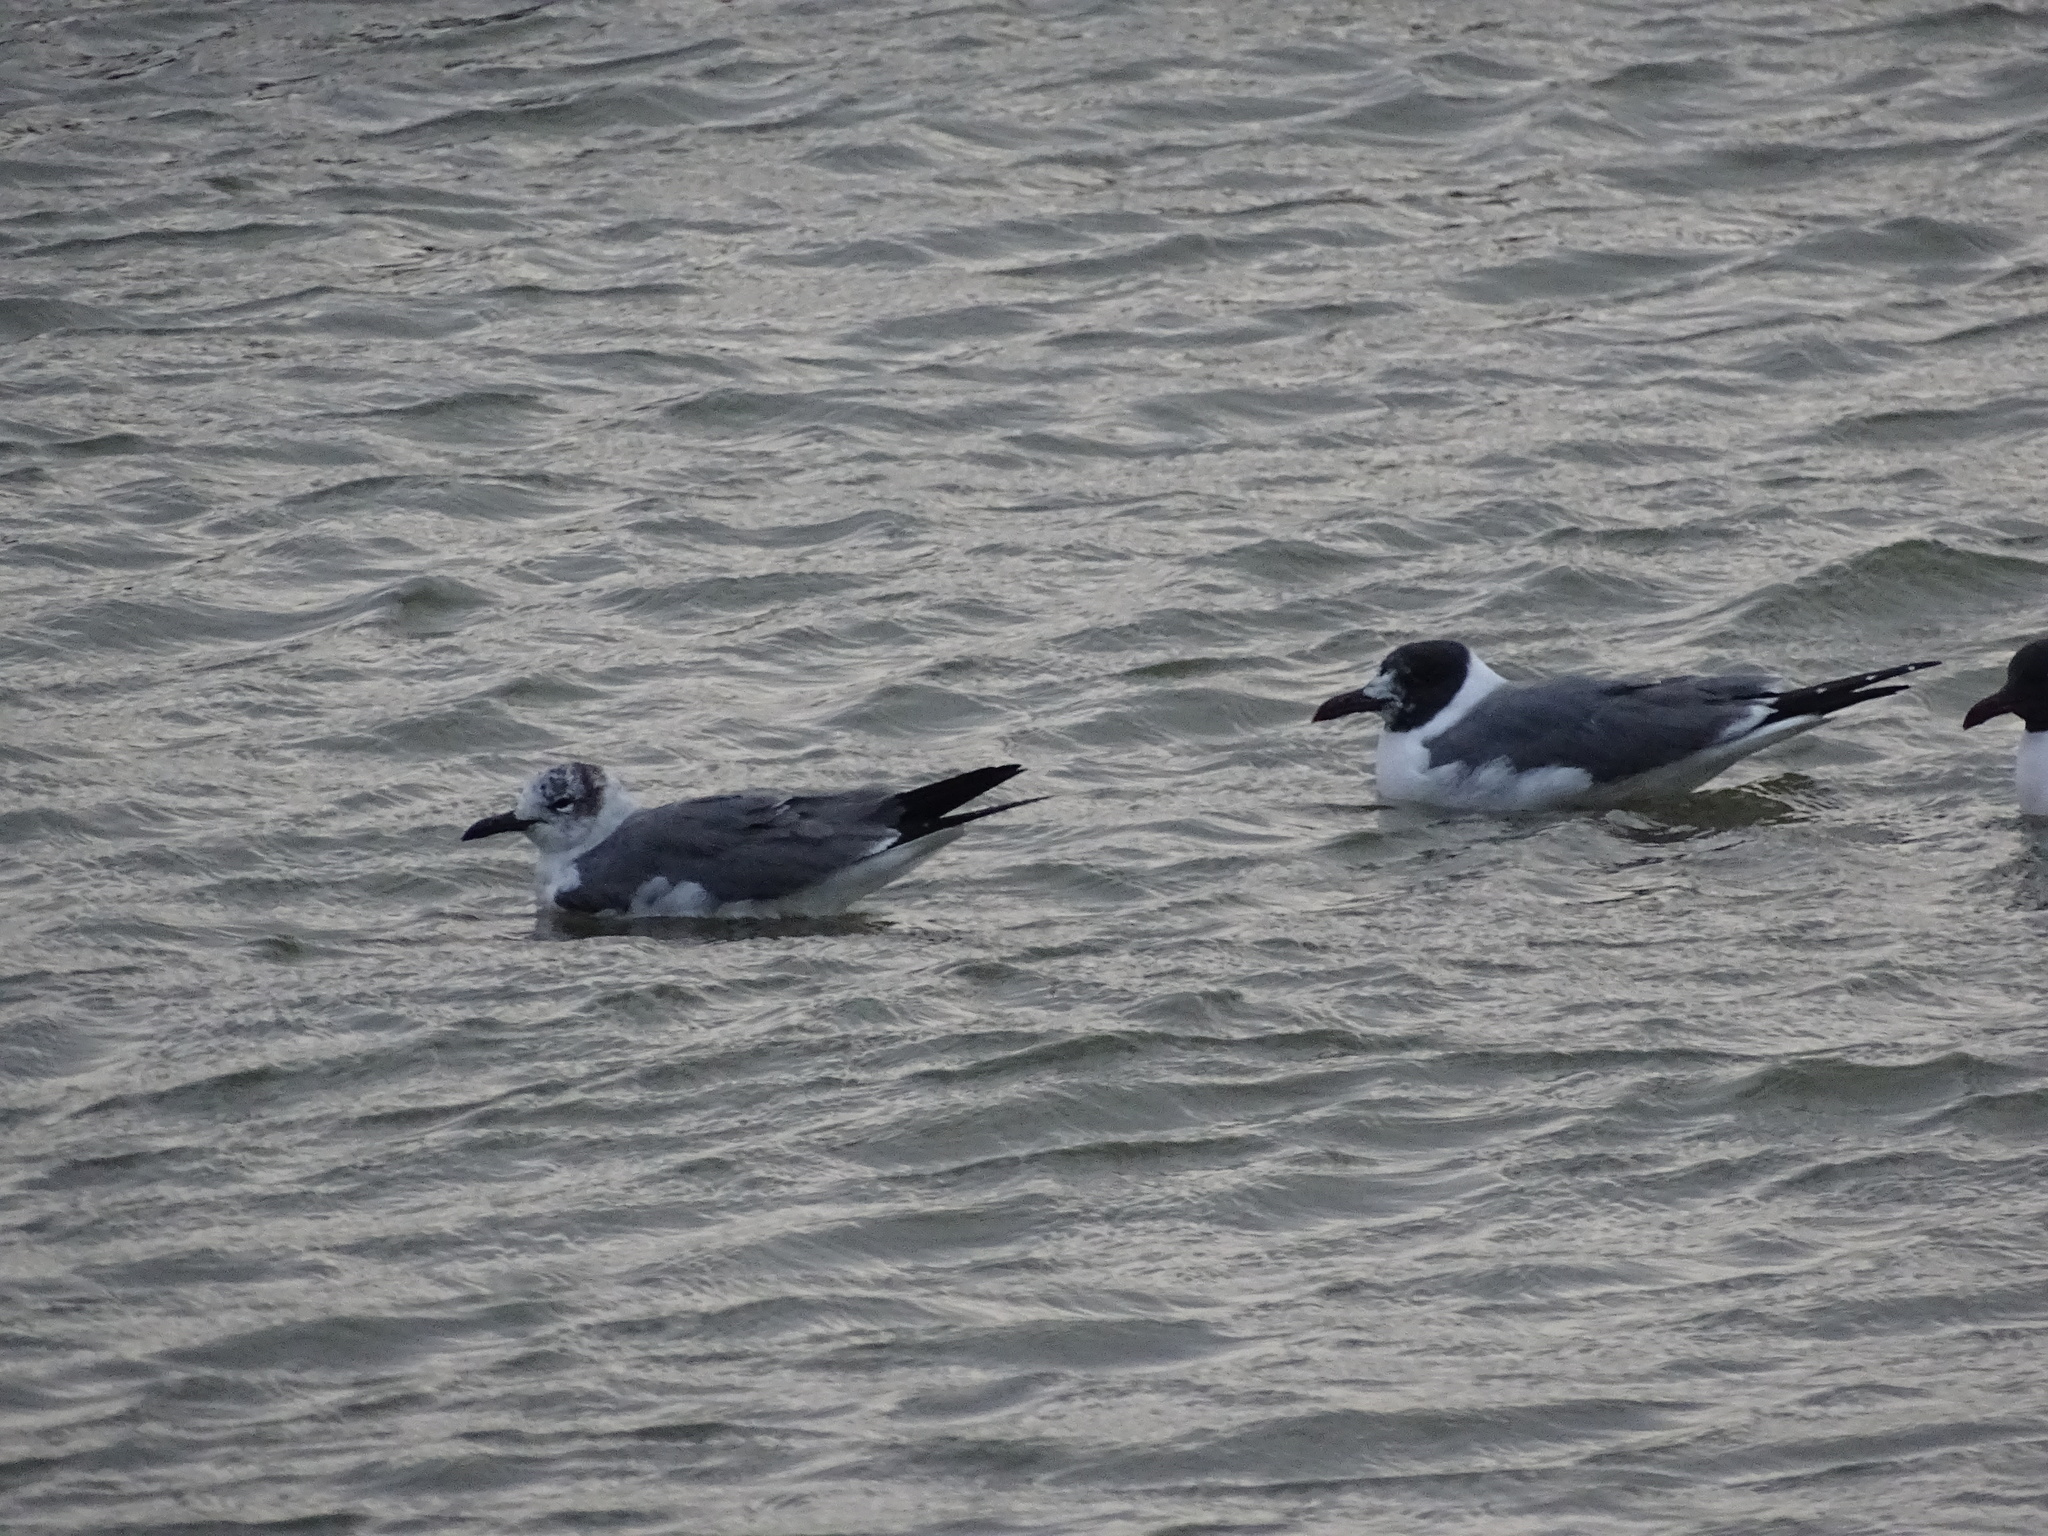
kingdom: Animalia
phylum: Chordata
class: Aves
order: Charadriiformes
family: Laridae
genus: Leucophaeus
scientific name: Leucophaeus atricilla
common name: Laughing gull
